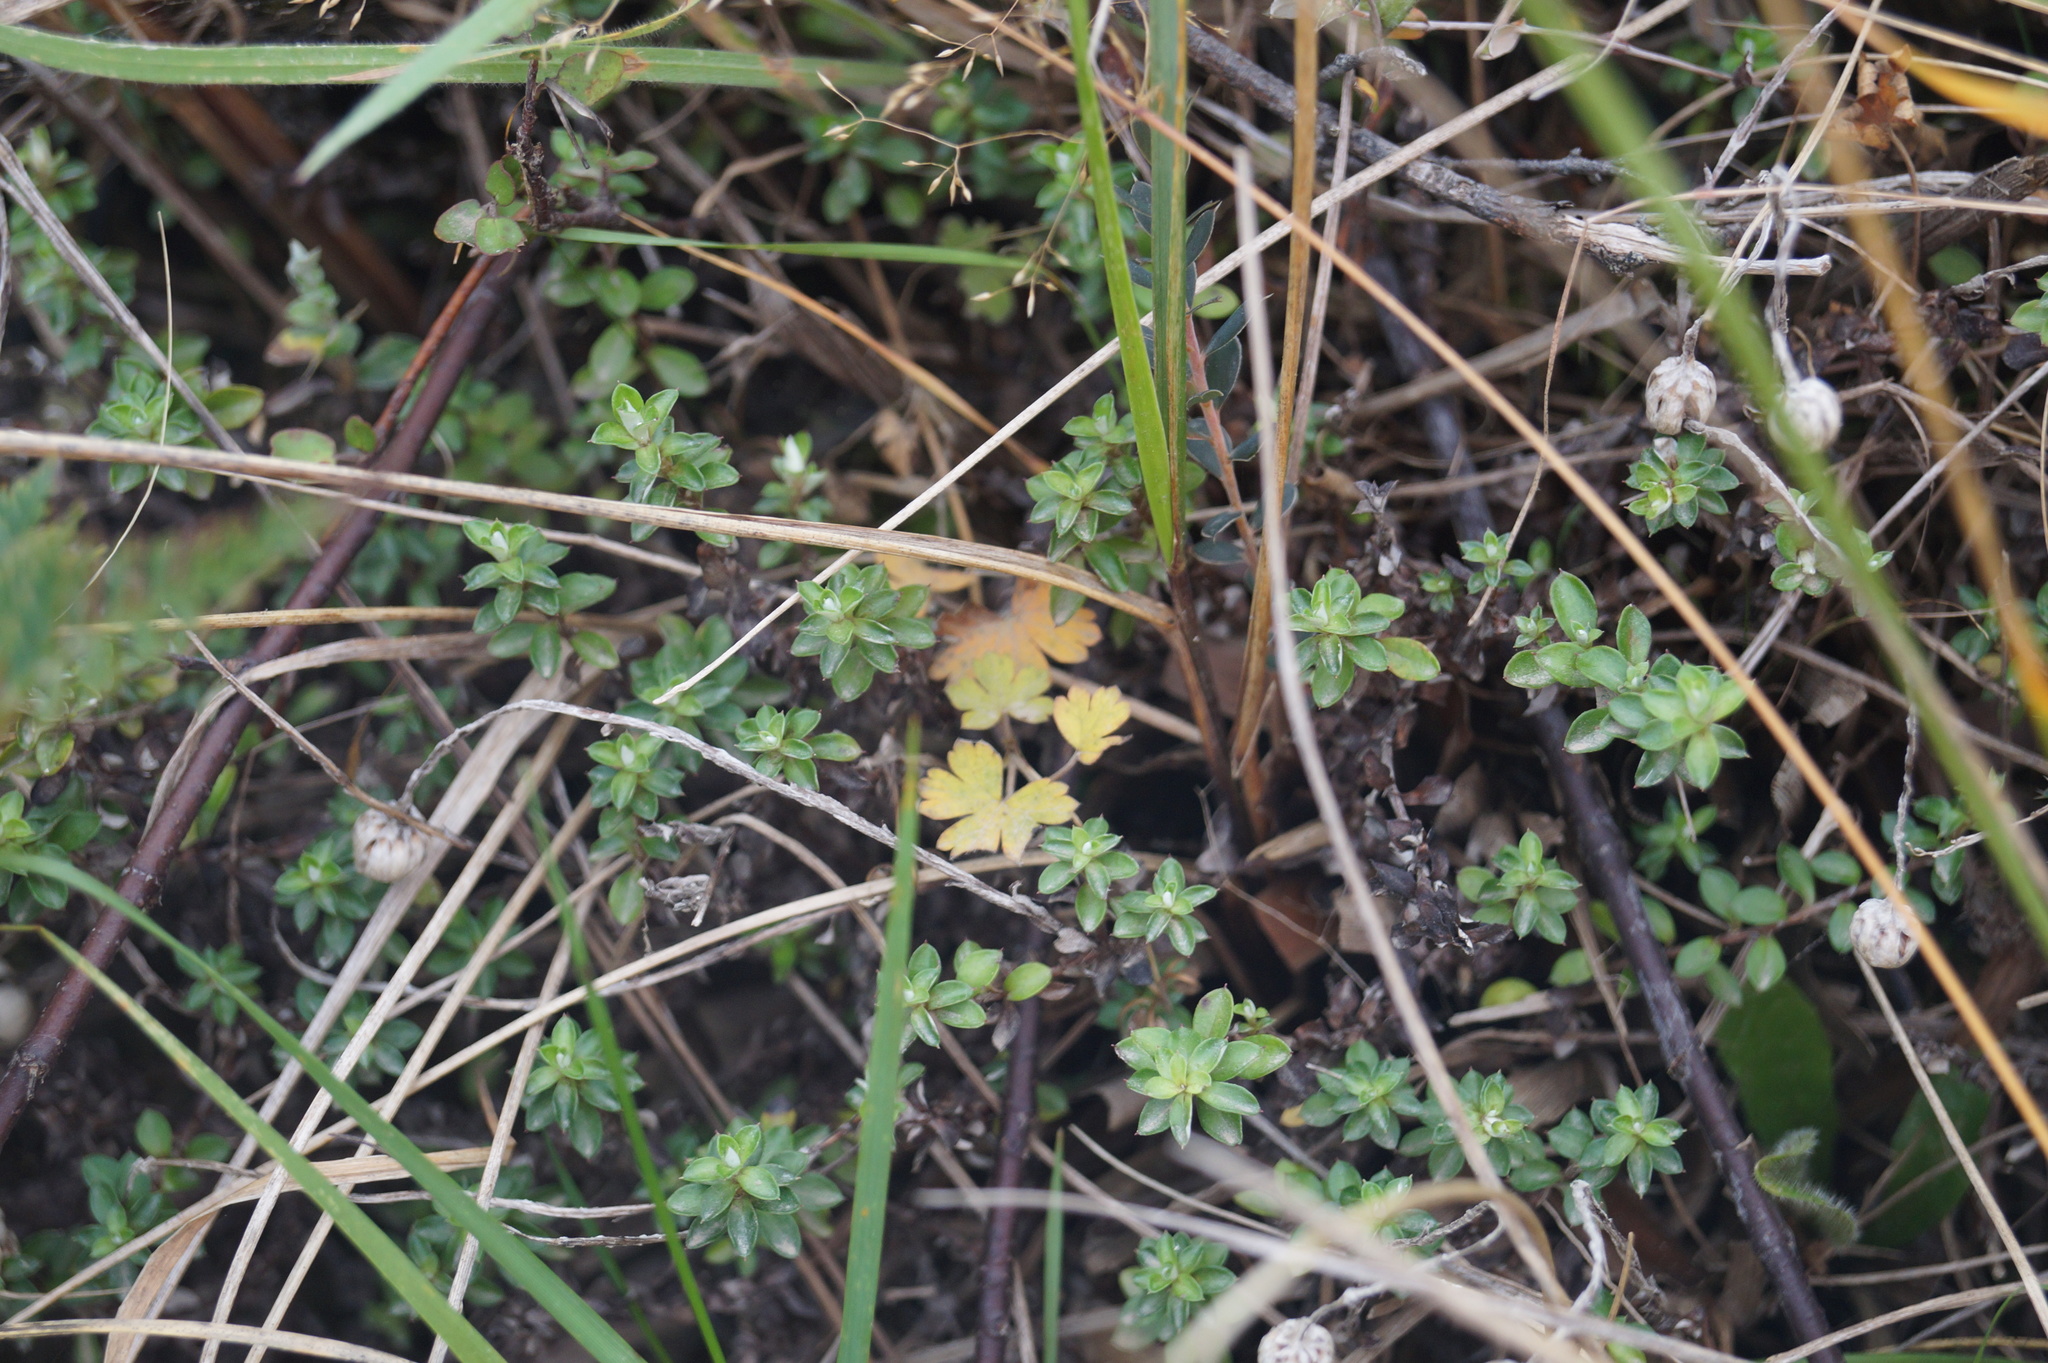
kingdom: Plantae
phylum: Tracheophyta
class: Magnoliopsida
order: Asterales
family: Asteraceae
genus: Anaphalioides
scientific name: Anaphalioides bellidioides
